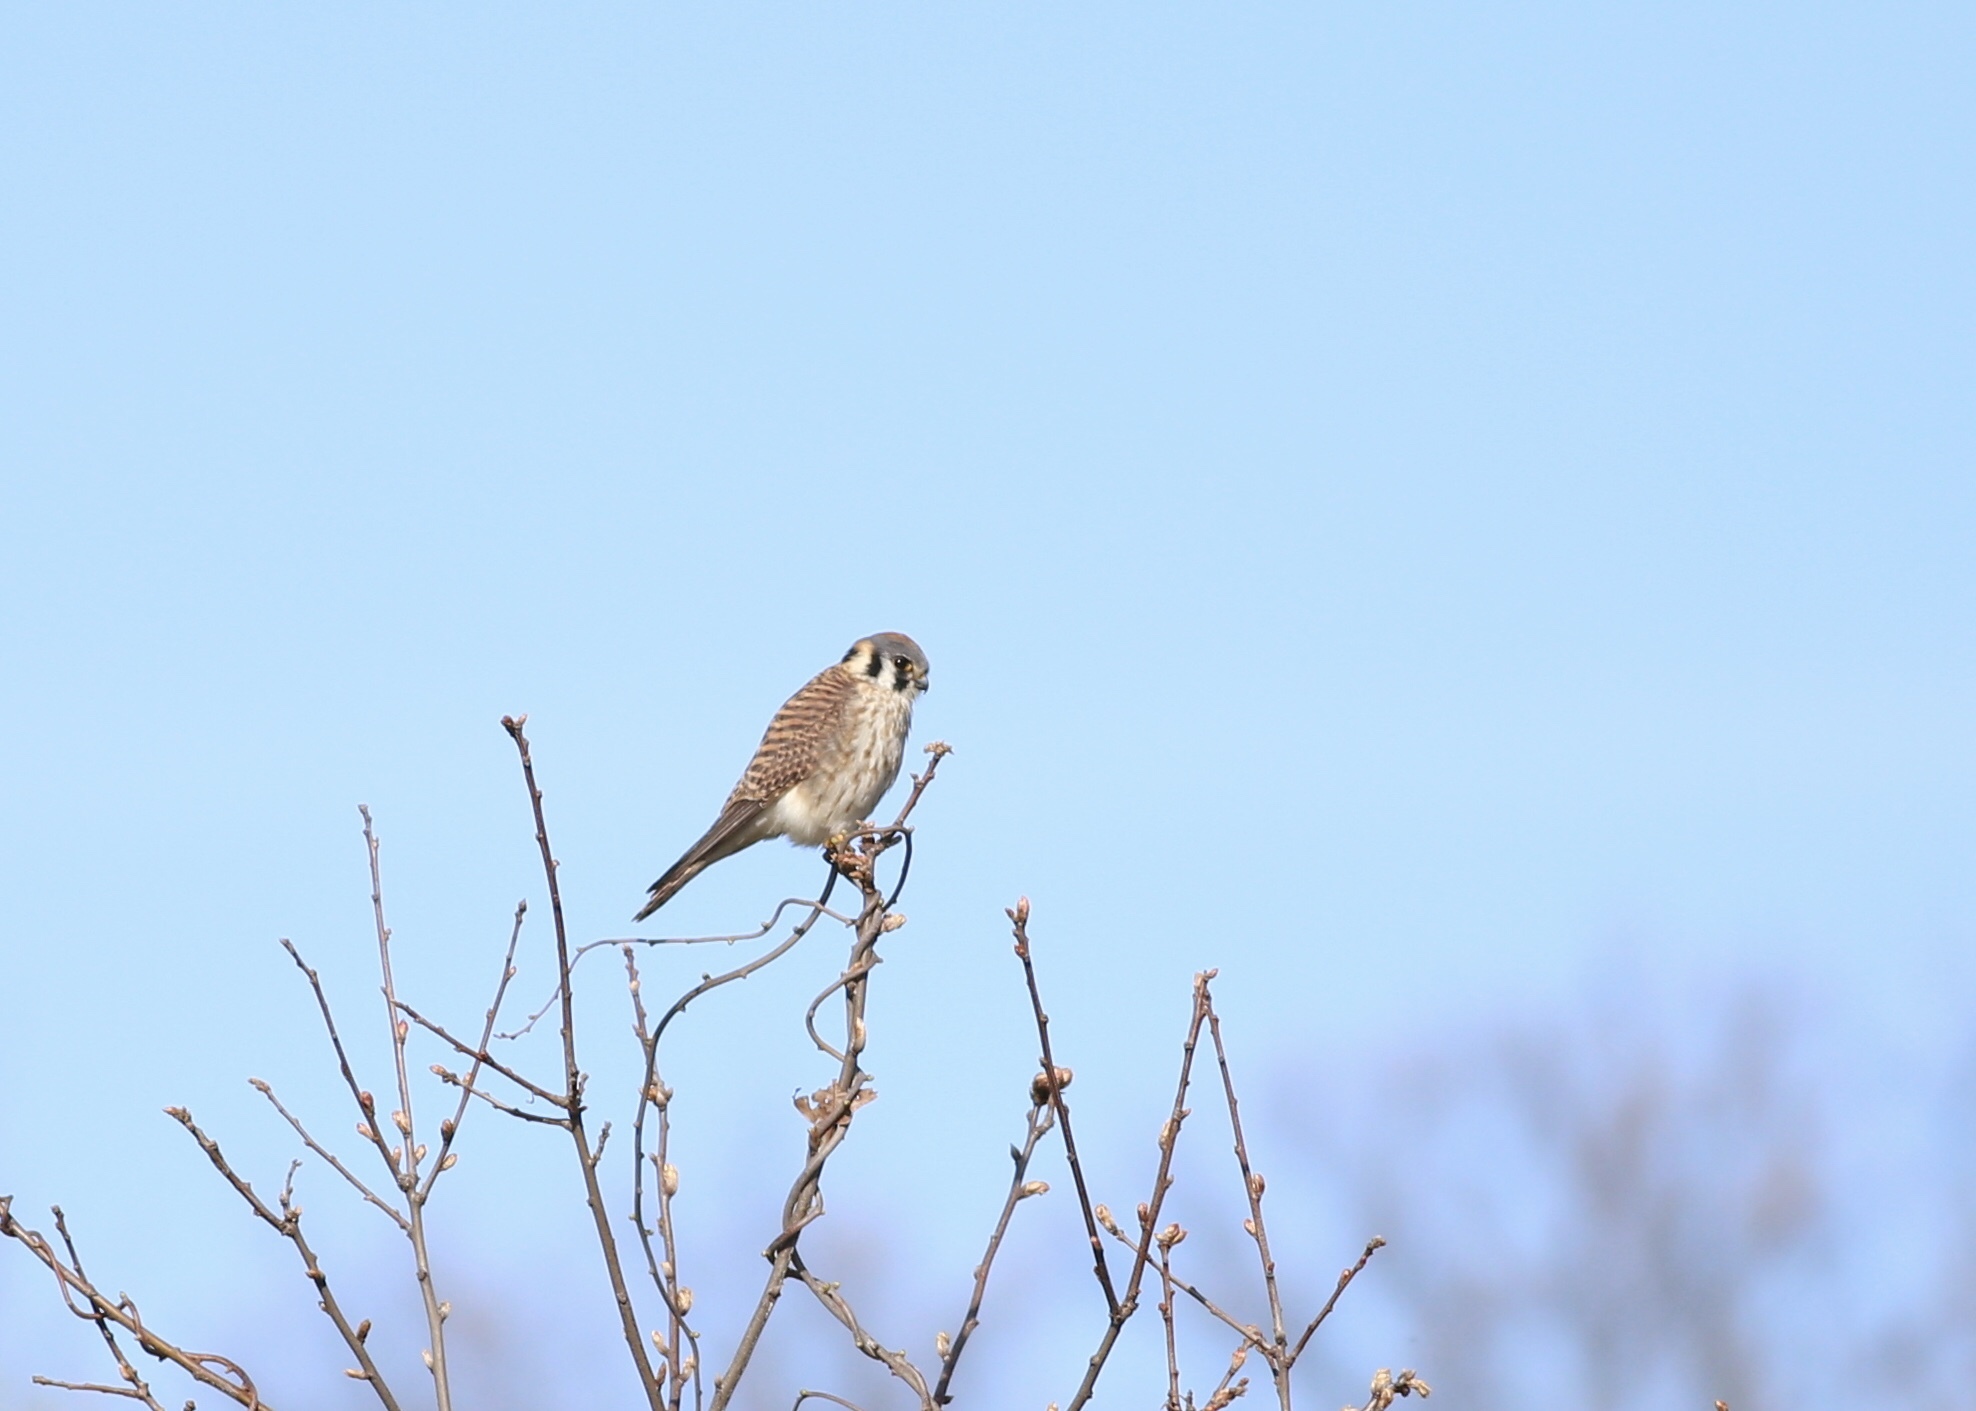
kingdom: Animalia
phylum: Chordata
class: Aves
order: Falconiformes
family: Falconidae
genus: Falco
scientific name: Falco sparverius
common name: American kestrel
